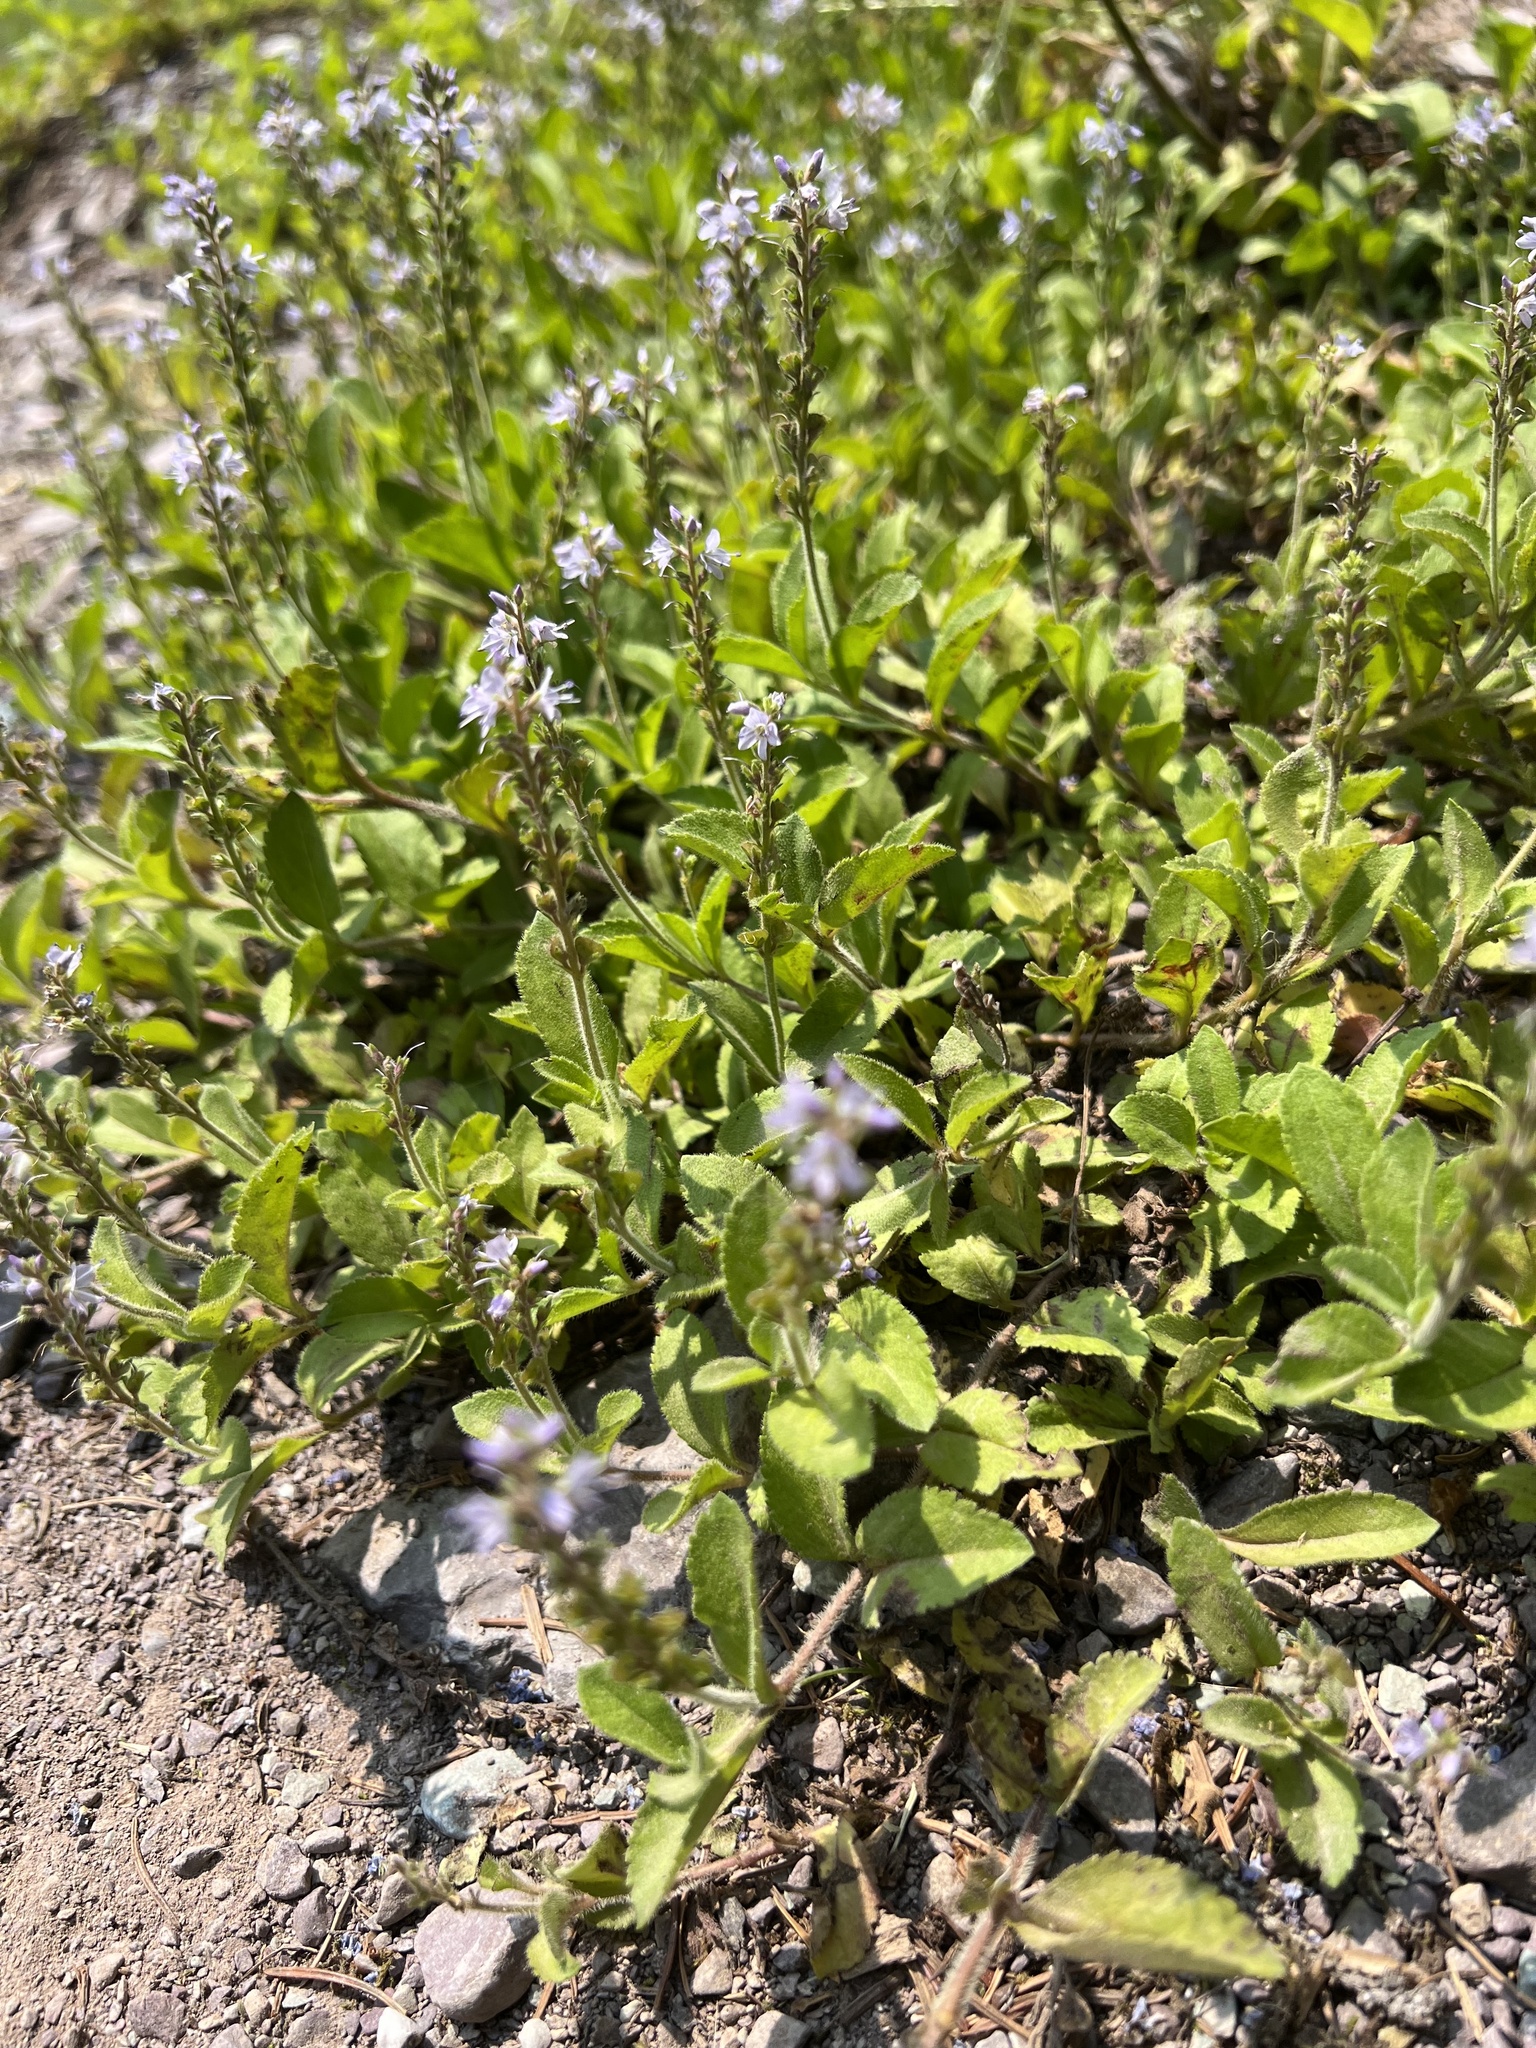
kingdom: Plantae
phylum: Tracheophyta
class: Magnoliopsida
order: Lamiales
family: Plantaginaceae
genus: Veronica
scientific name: Veronica officinalis
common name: Common speedwell
